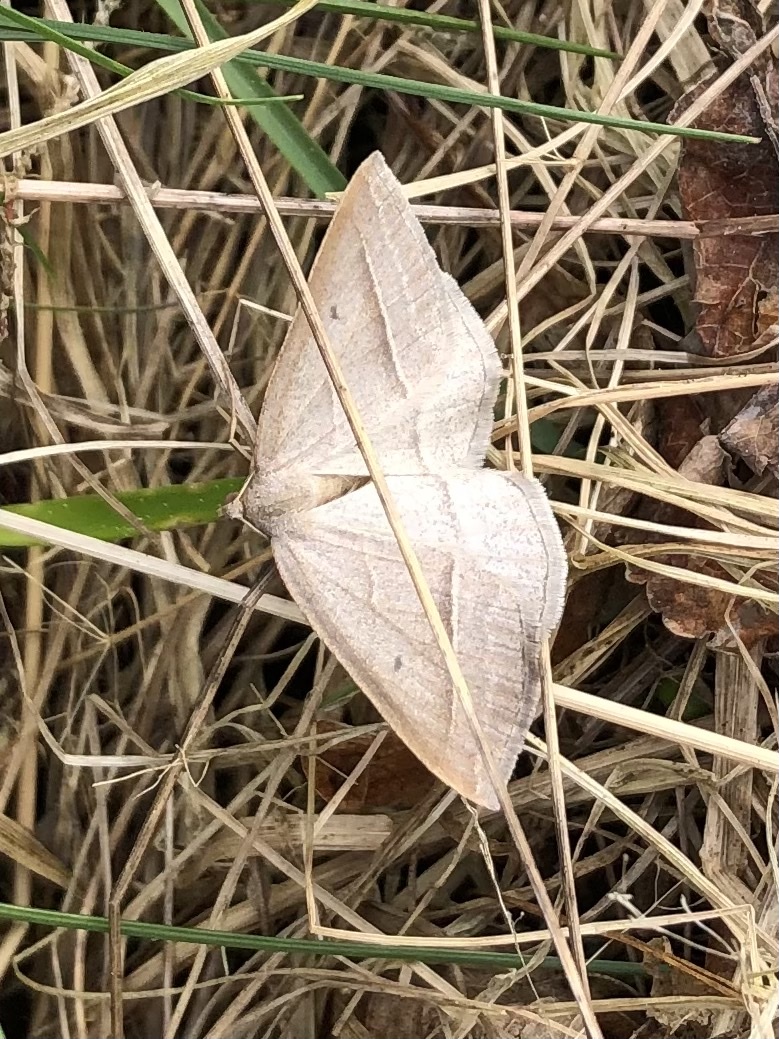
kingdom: Animalia
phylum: Arthropoda
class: Insecta
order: Lepidoptera
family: Pterophoridae
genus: Pterophorus
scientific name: Pterophorus Petrophora chlorosata
